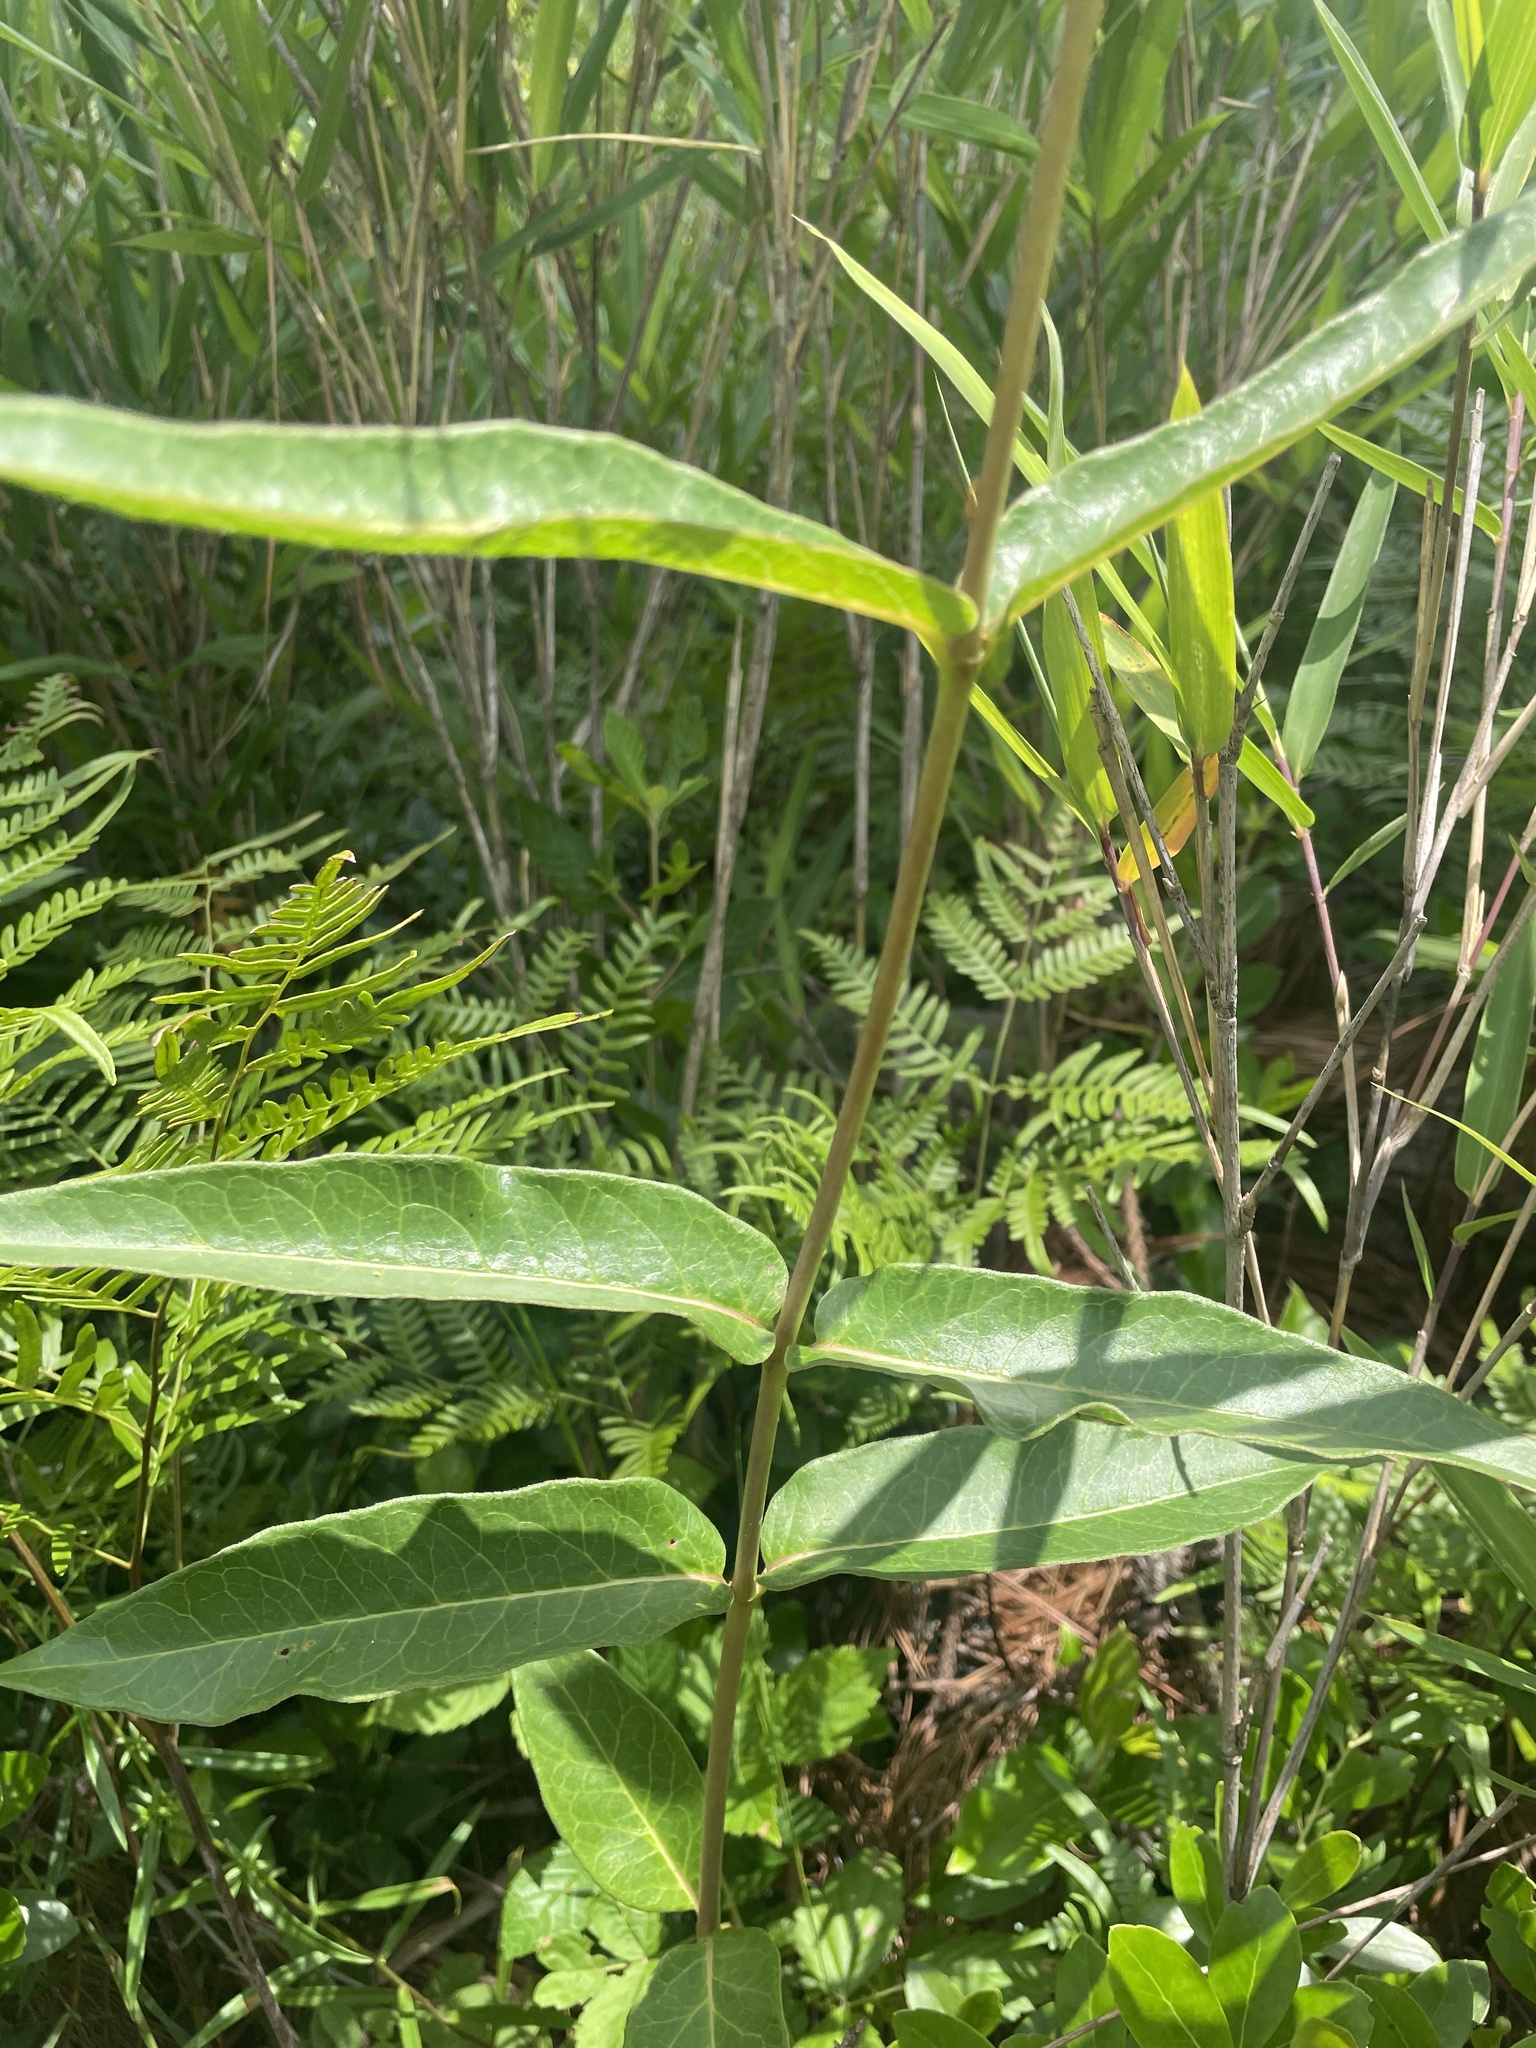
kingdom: Plantae
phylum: Tracheophyta
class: Magnoliopsida
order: Gentianales
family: Apocynaceae
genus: Asclepias
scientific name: Asclepias rubra
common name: Red milkweed
